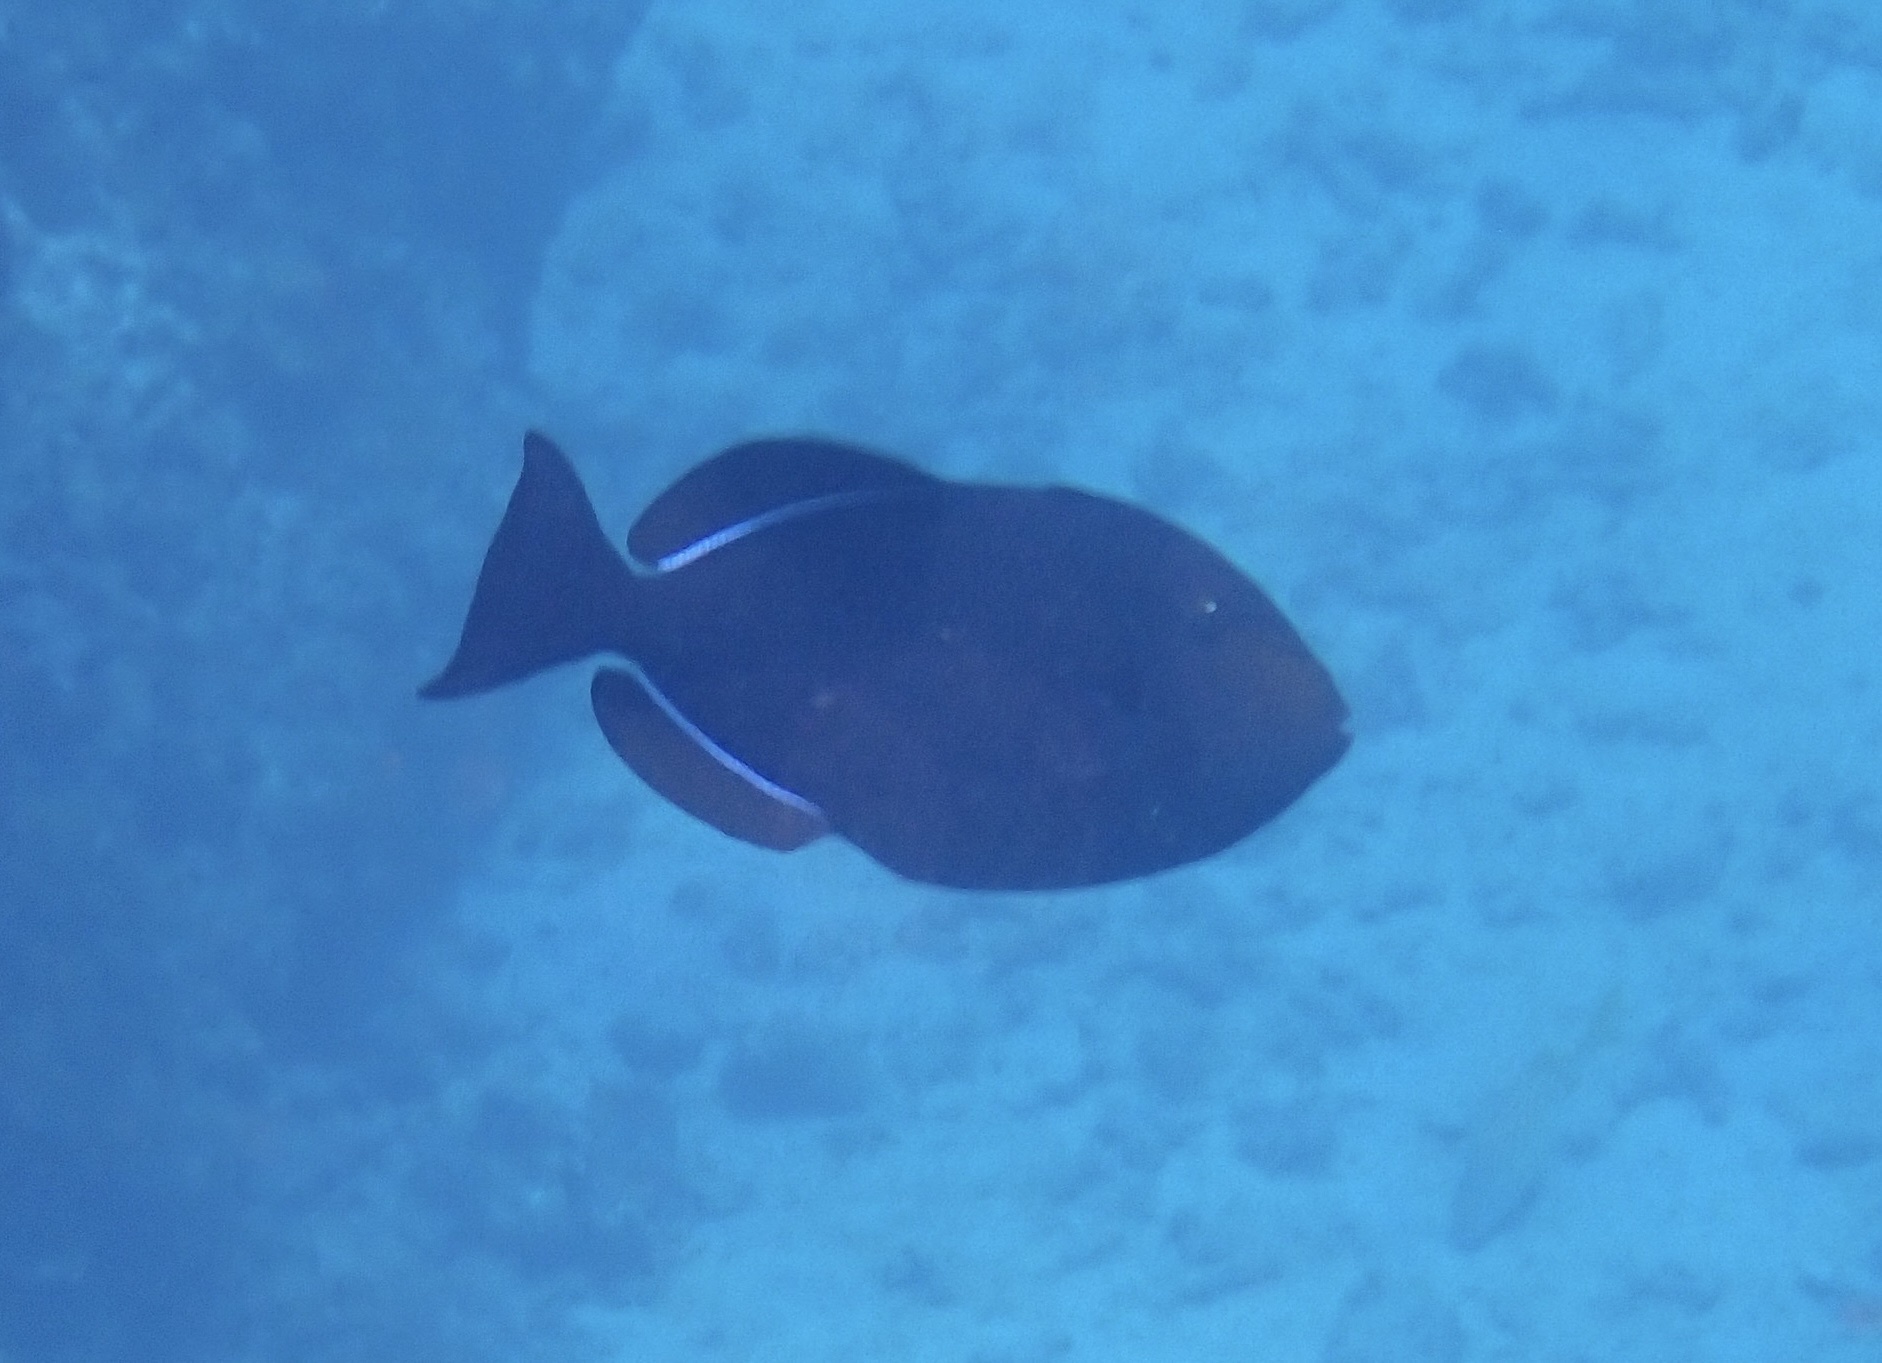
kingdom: Animalia
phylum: Chordata
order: Tetraodontiformes
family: Balistidae
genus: Melichthys
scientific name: Melichthys niger
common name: Black durgon
